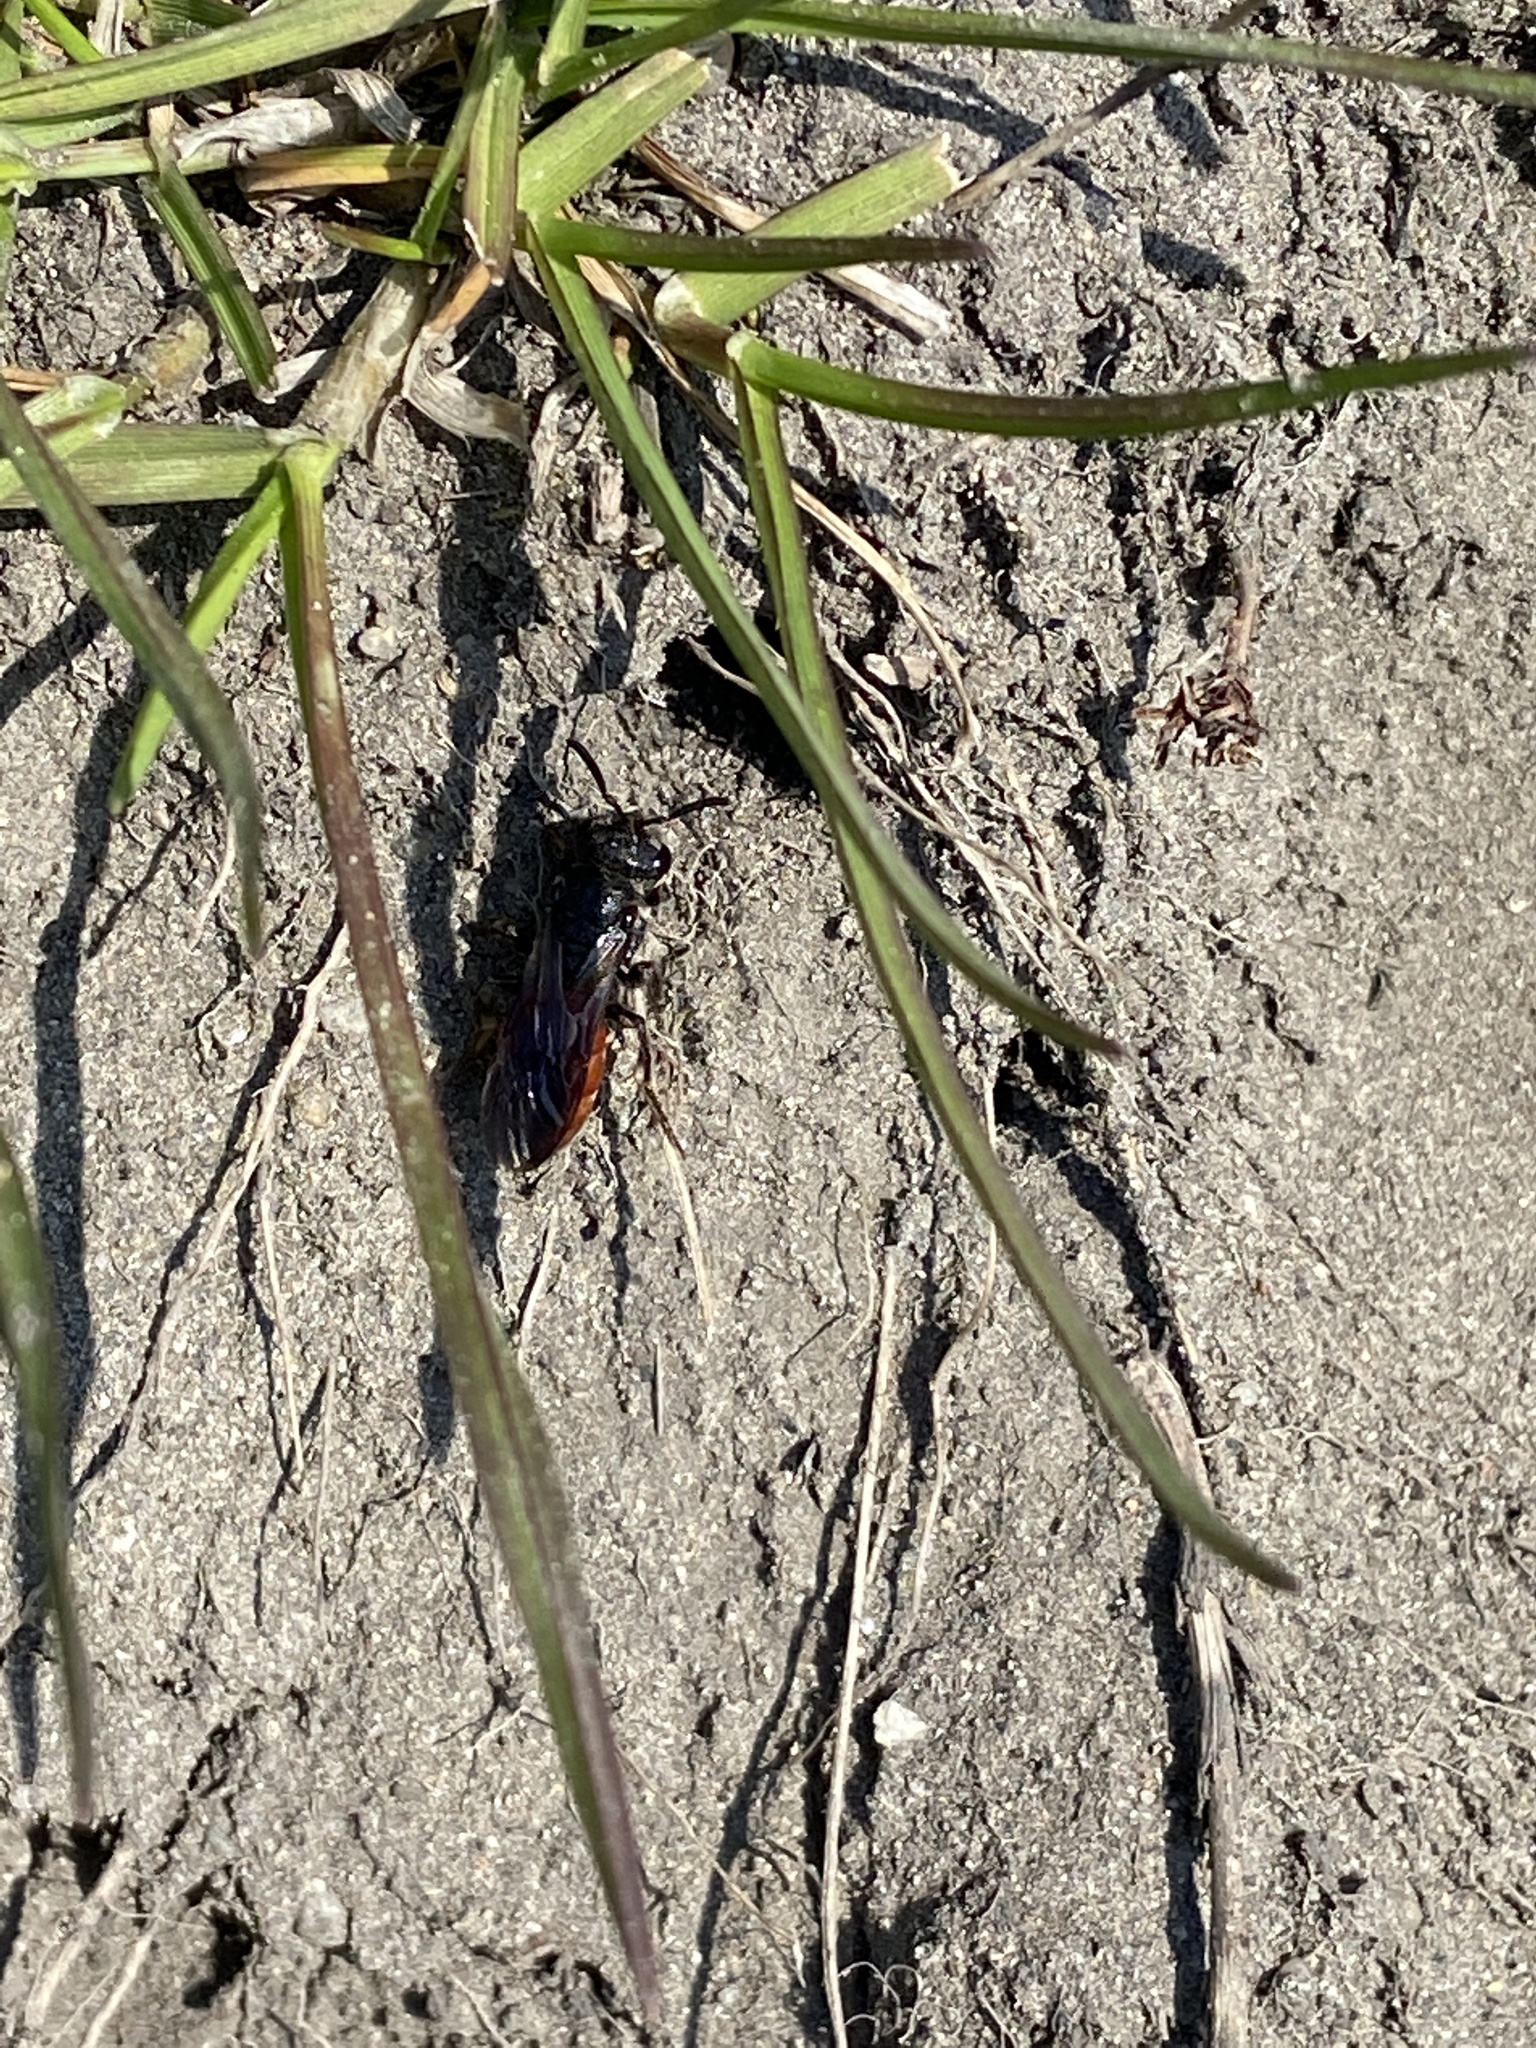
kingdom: Animalia
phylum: Arthropoda
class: Insecta
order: Hymenoptera
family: Halictidae
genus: Sphecodes
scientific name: Sphecodes albilabris
